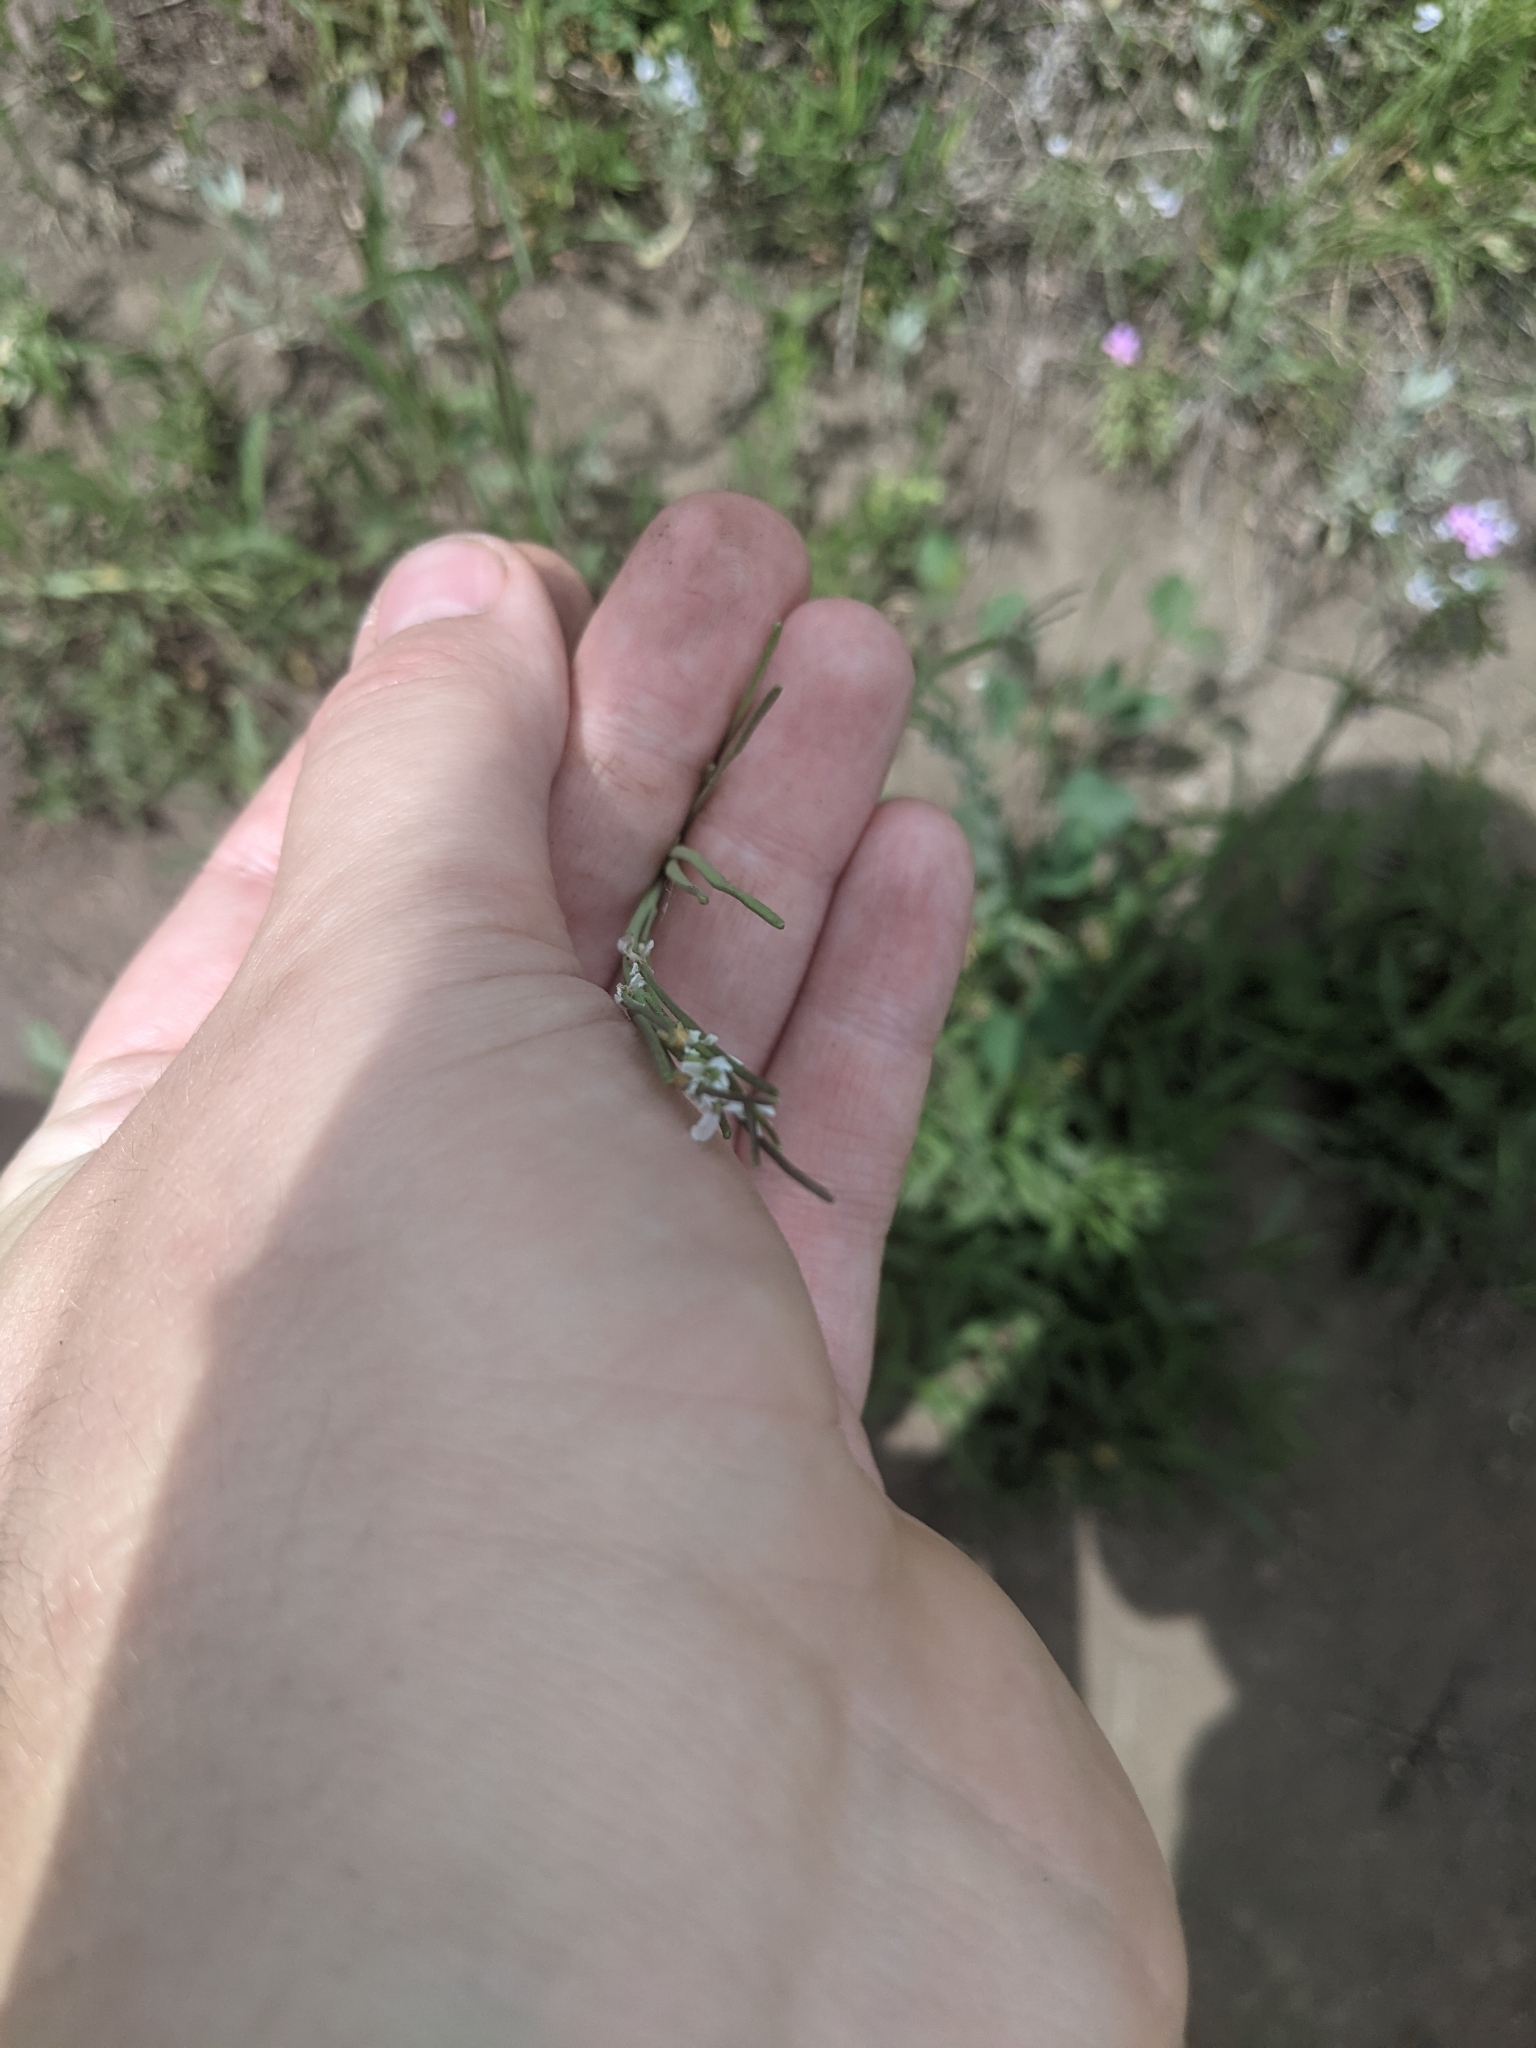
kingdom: Plantae
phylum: Tracheophyta
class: Magnoliopsida
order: Brassicales
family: Brassicaceae
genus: Turritis
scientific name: Turritis glabra
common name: Tower rockcress
